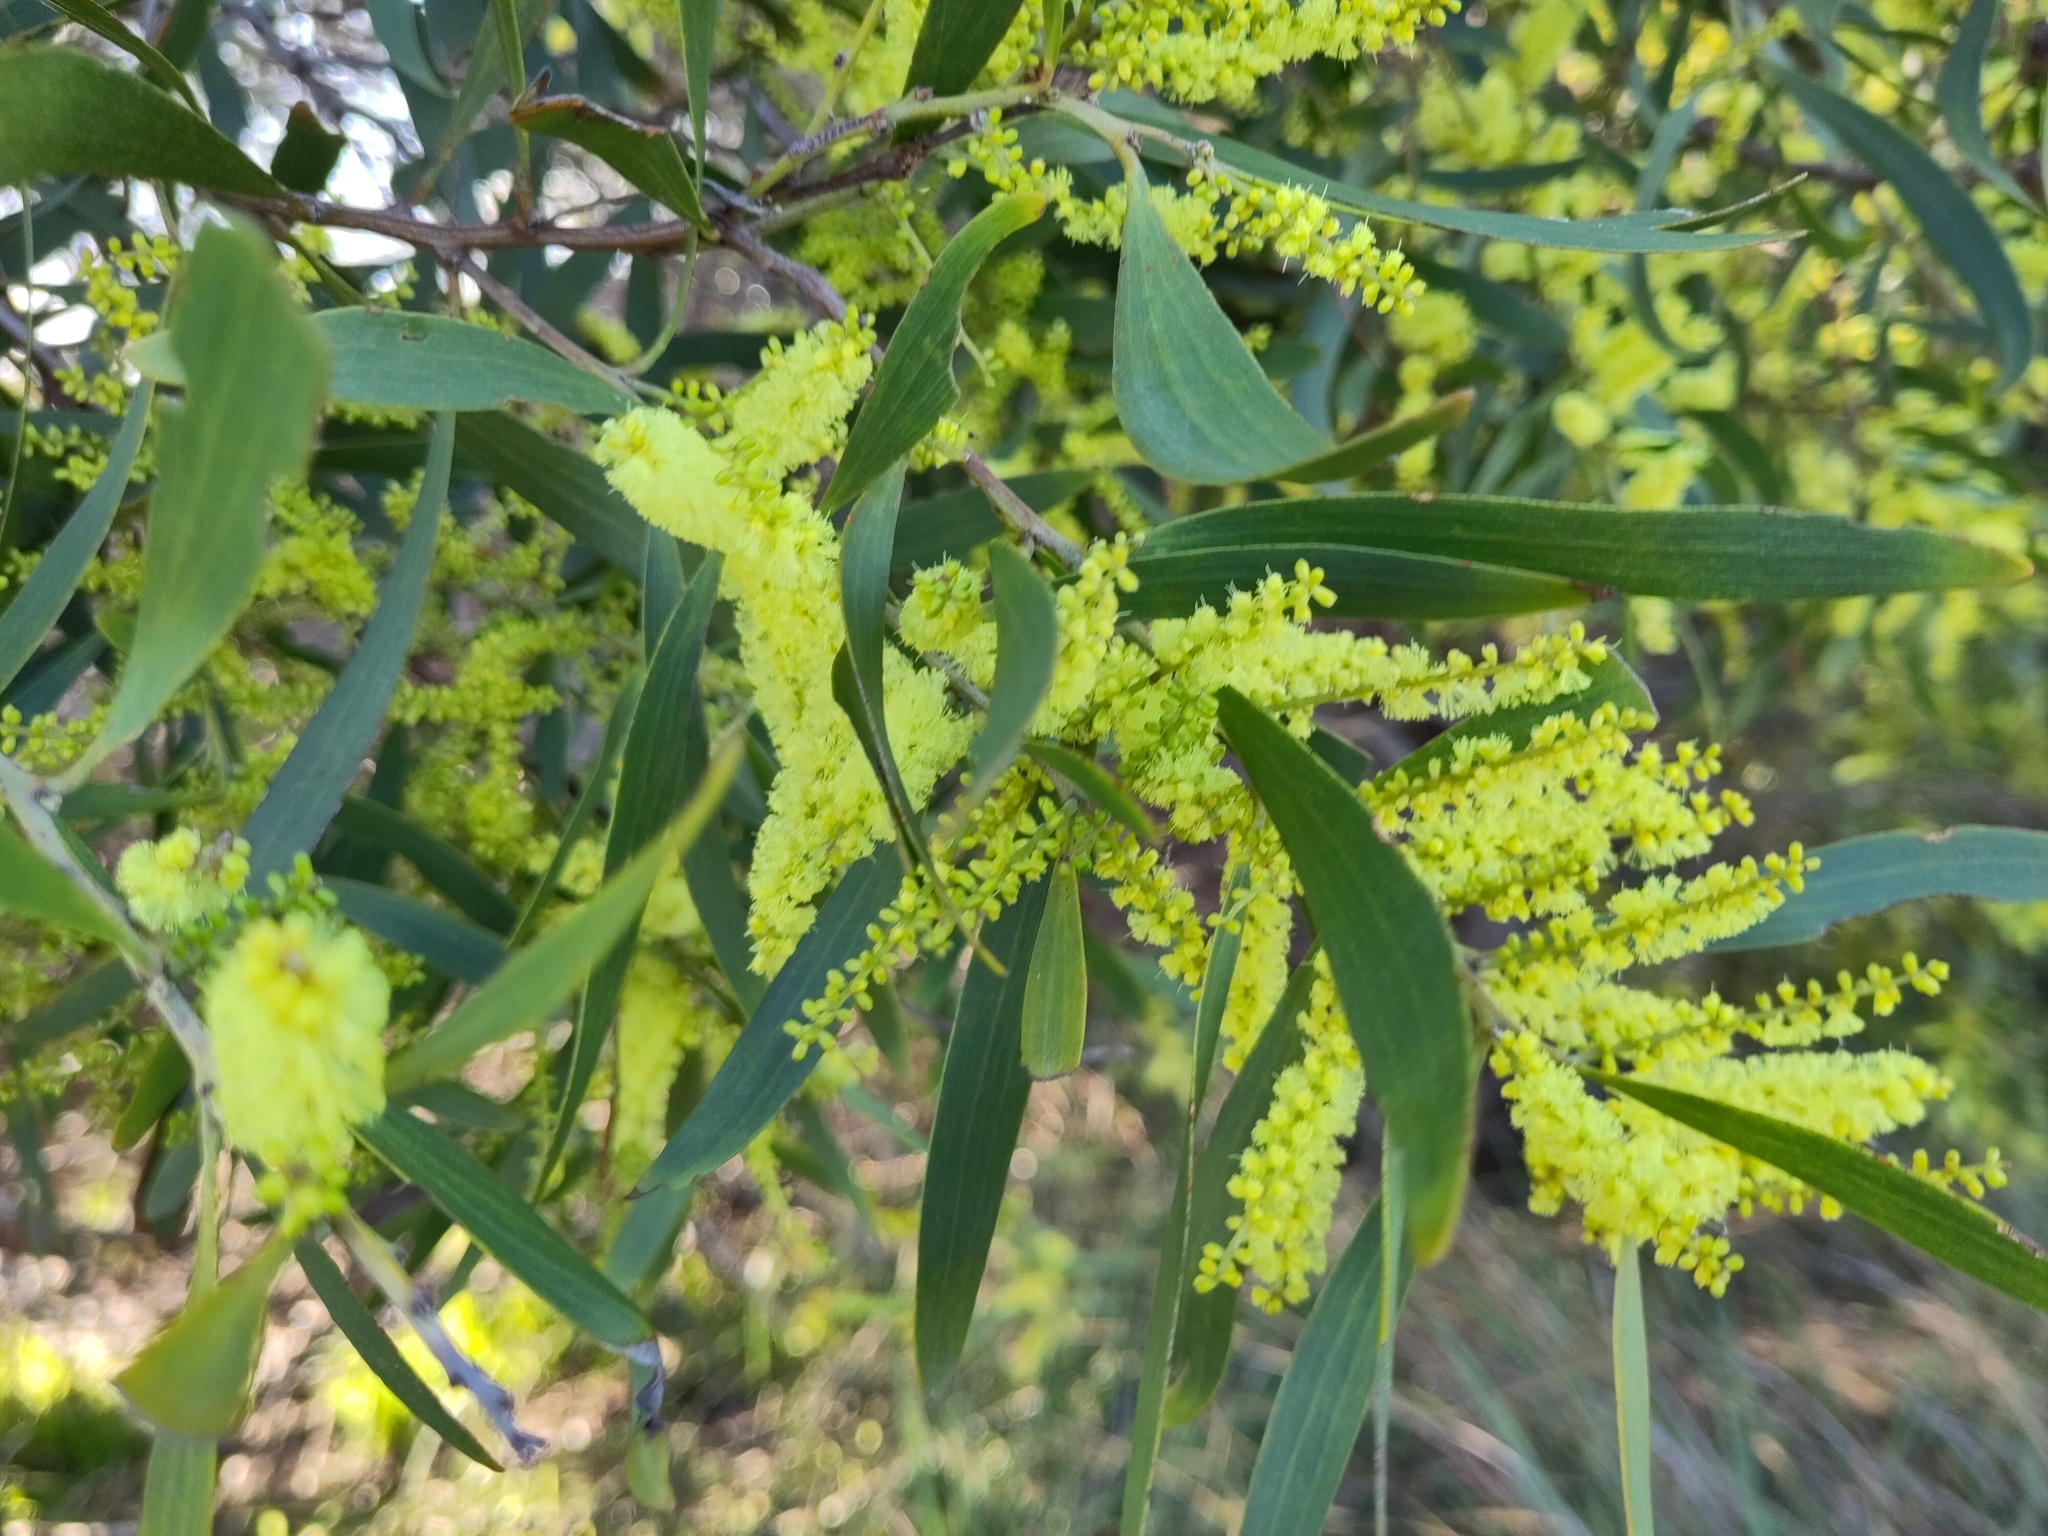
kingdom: Plantae
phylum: Tracheophyta
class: Magnoliopsida
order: Fabales
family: Fabaceae
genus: Acacia
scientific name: Acacia longifolia
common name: Sydney golden wattle
